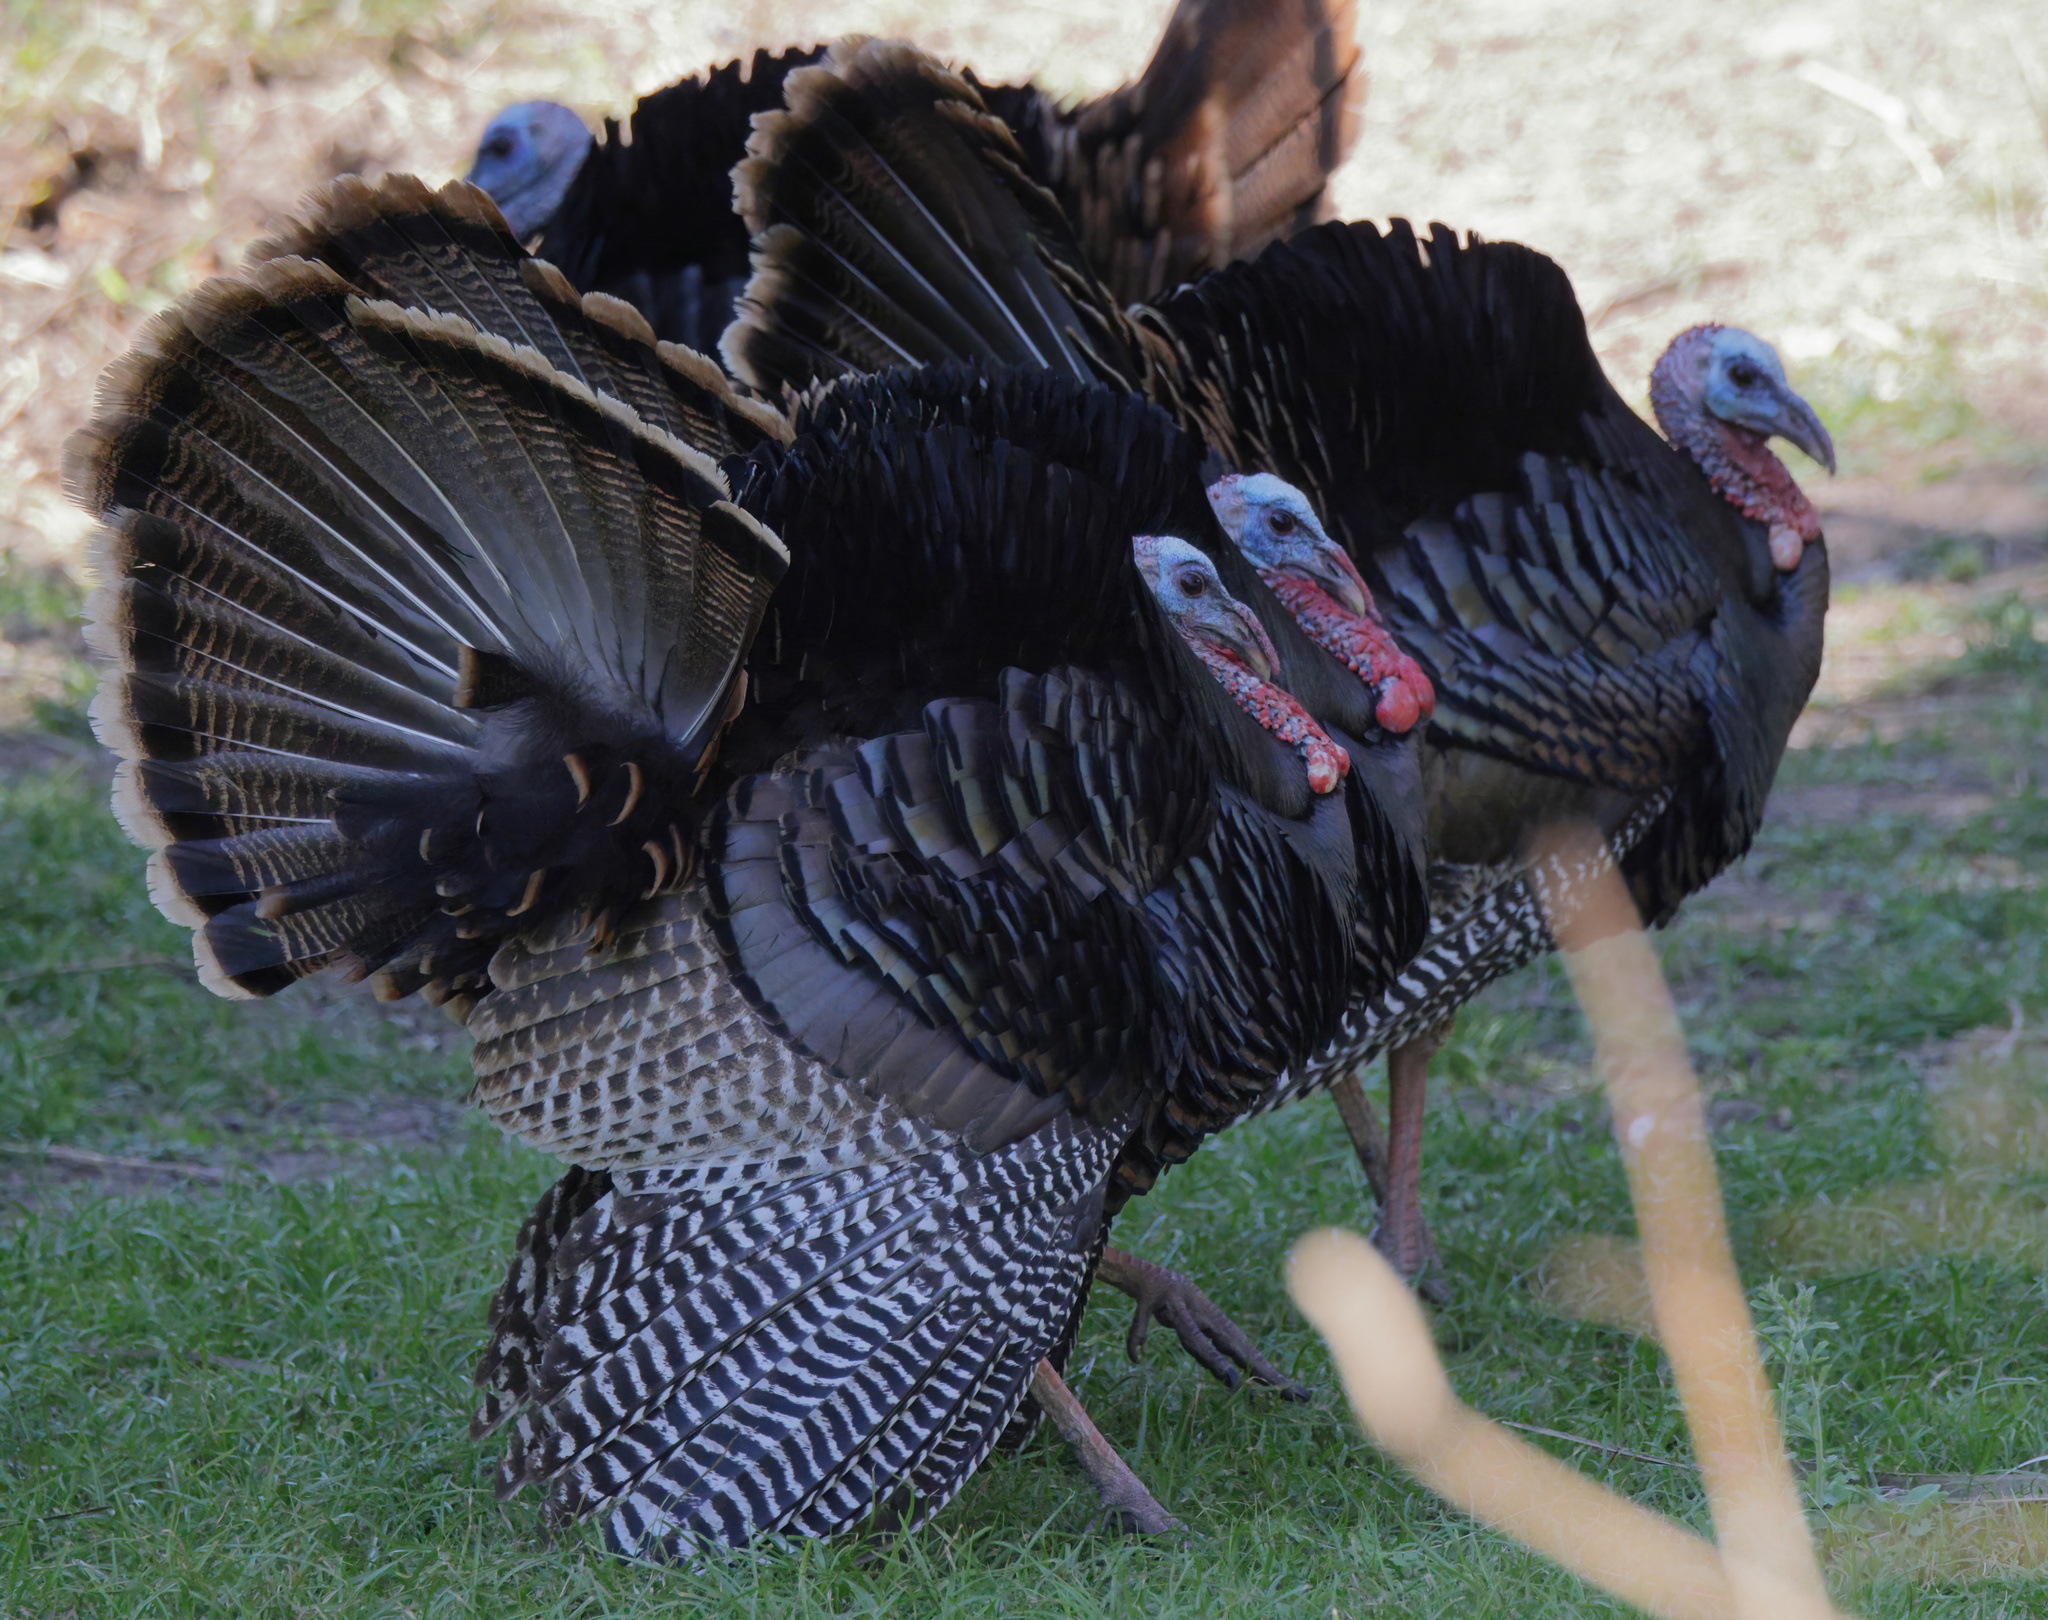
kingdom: Animalia
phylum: Chordata
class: Aves
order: Galliformes
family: Phasianidae
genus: Meleagris
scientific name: Meleagris gallopavo
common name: Wild turkey
